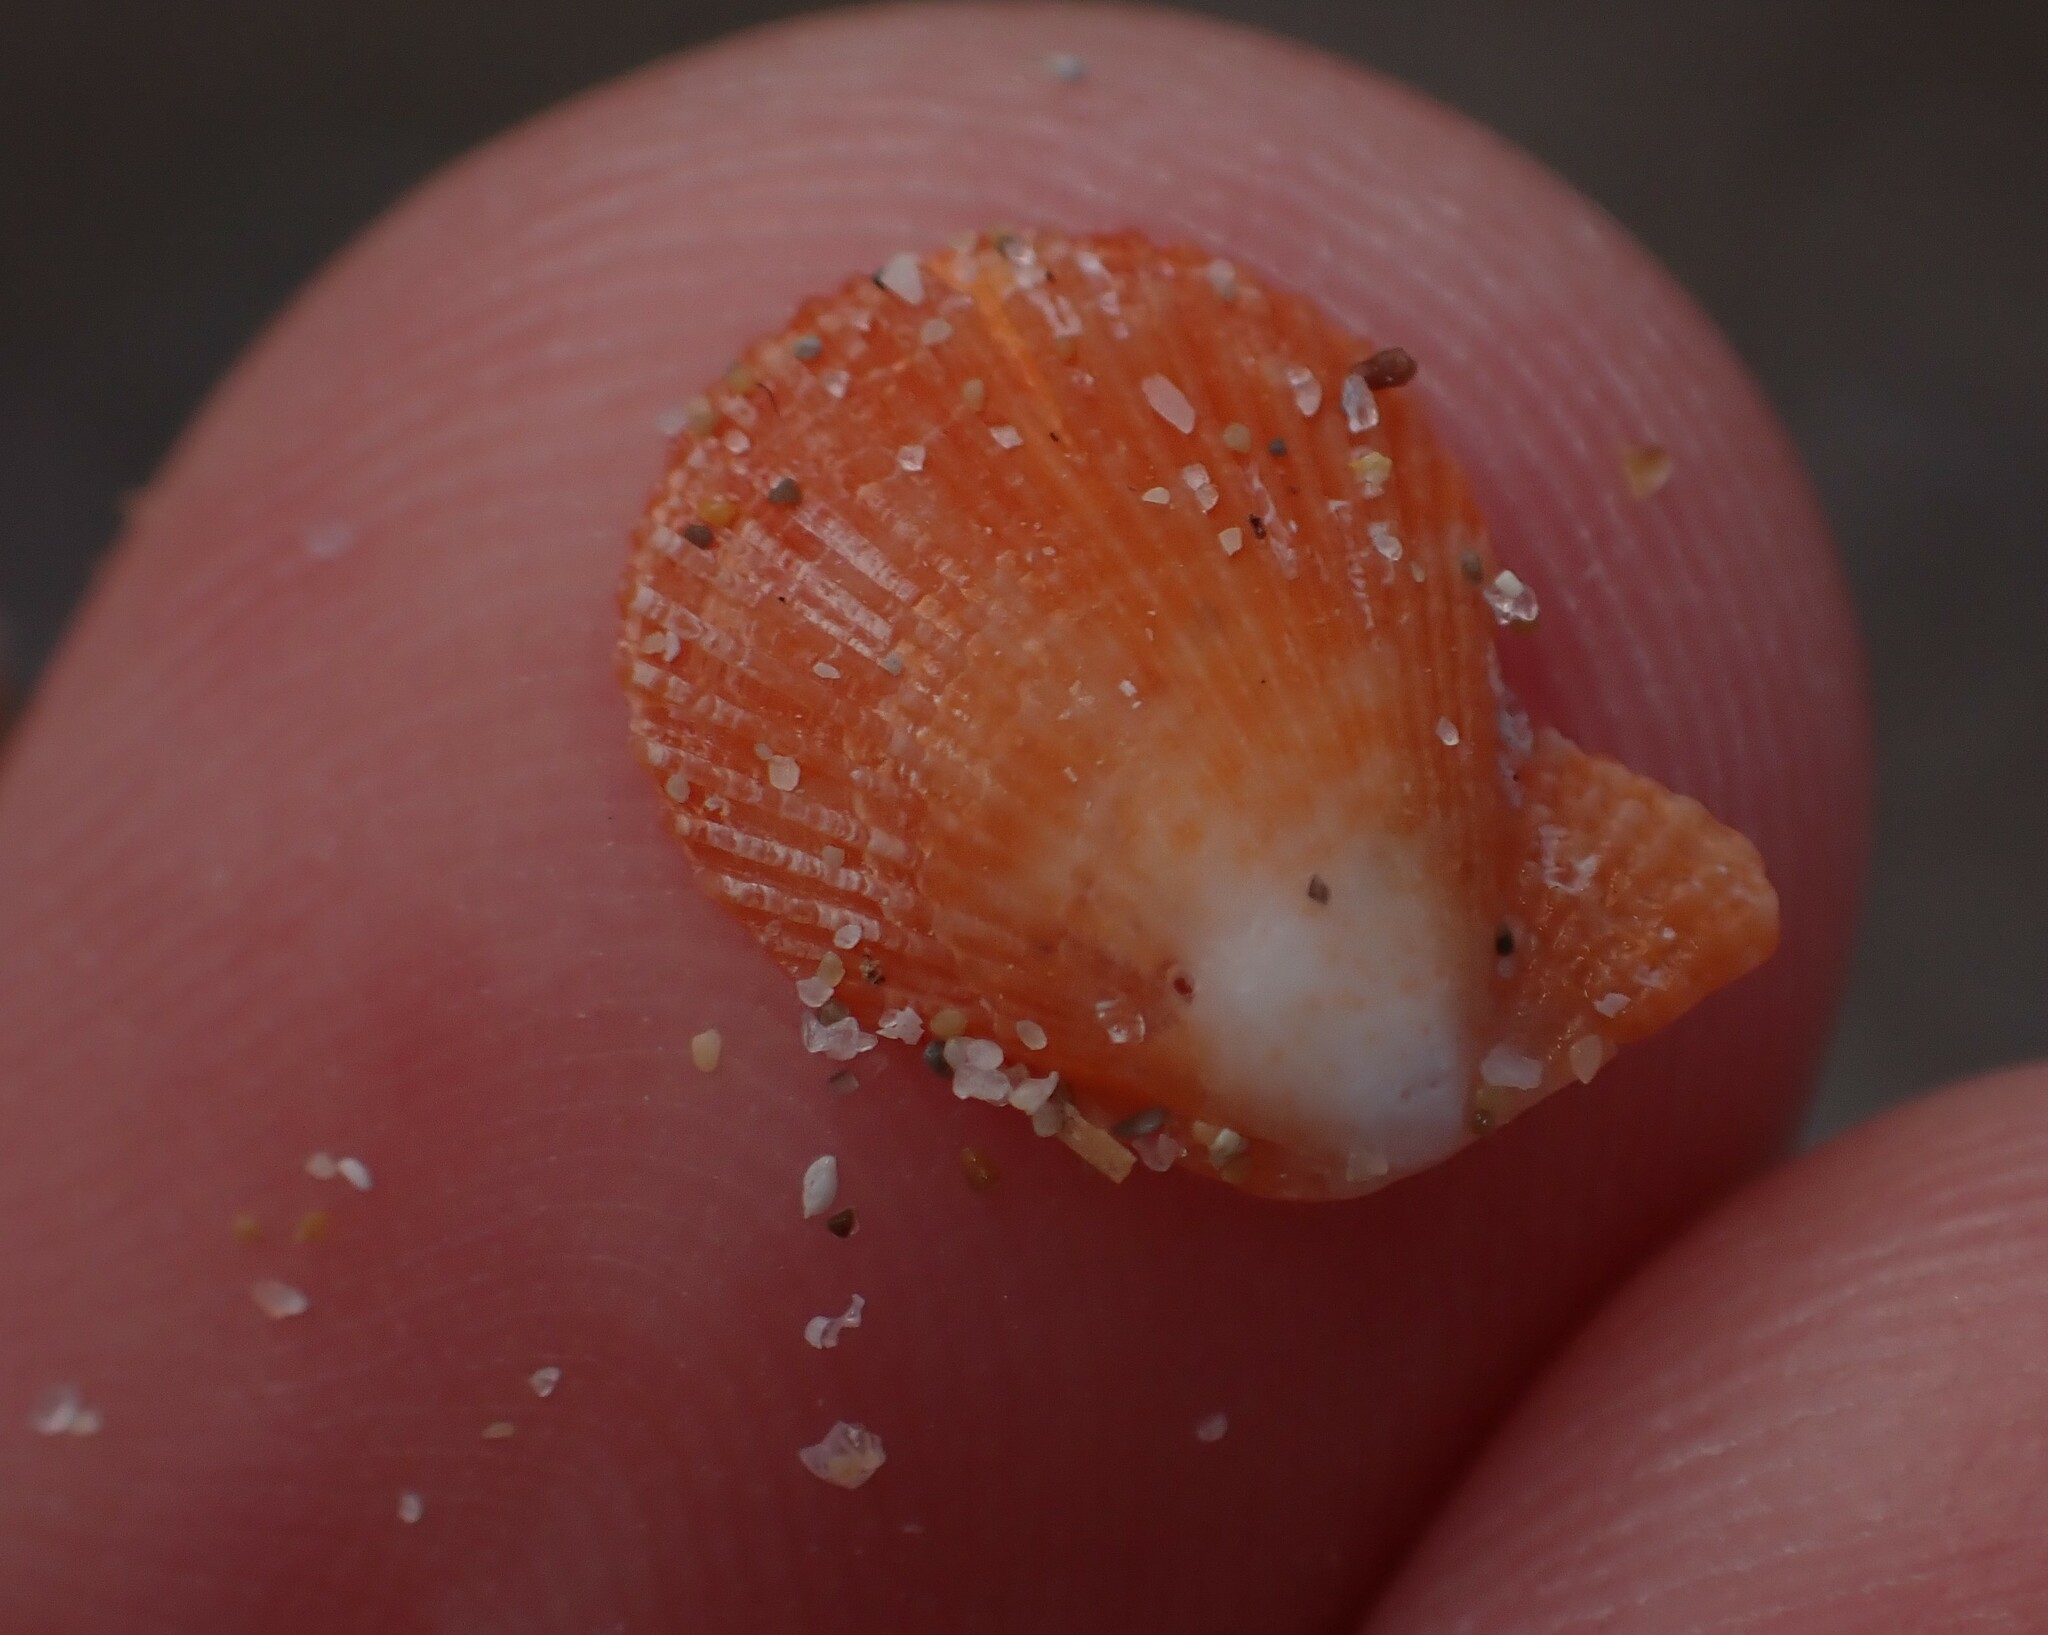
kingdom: Animalia
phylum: Mollusca
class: Bivalvia
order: Pectinida
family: Pectinidae
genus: Talochlamys
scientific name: Talochlamys multistriata
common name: Tinted scallop
